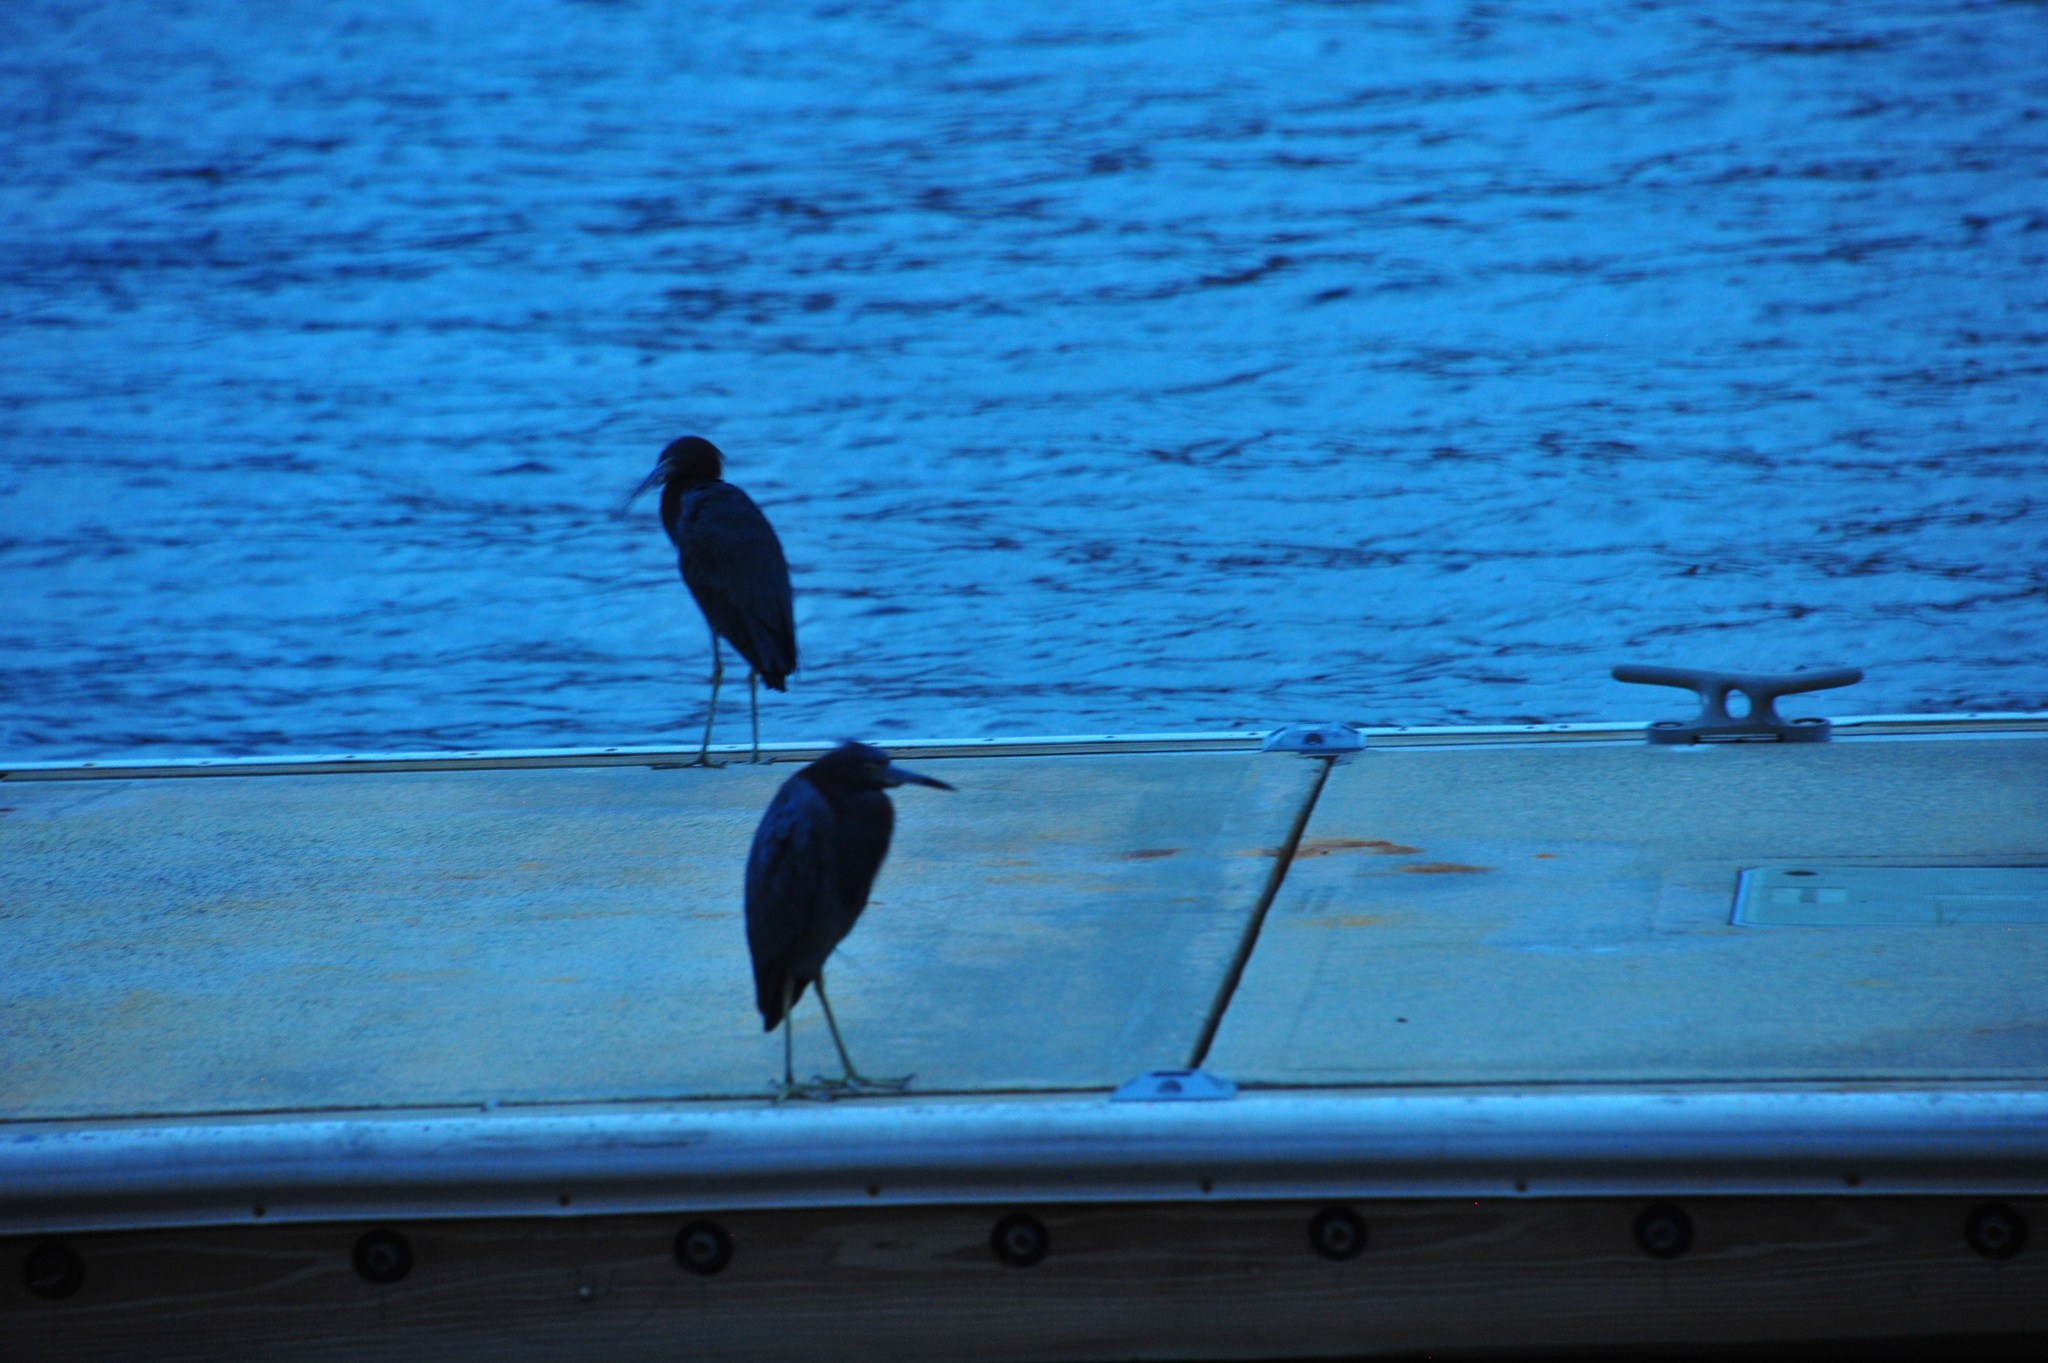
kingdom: Animalia
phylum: Chordata
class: Aves
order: Pelecaniformes
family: Ardeidae
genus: Egretta
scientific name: Egretta caerulea
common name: Little blue heron
